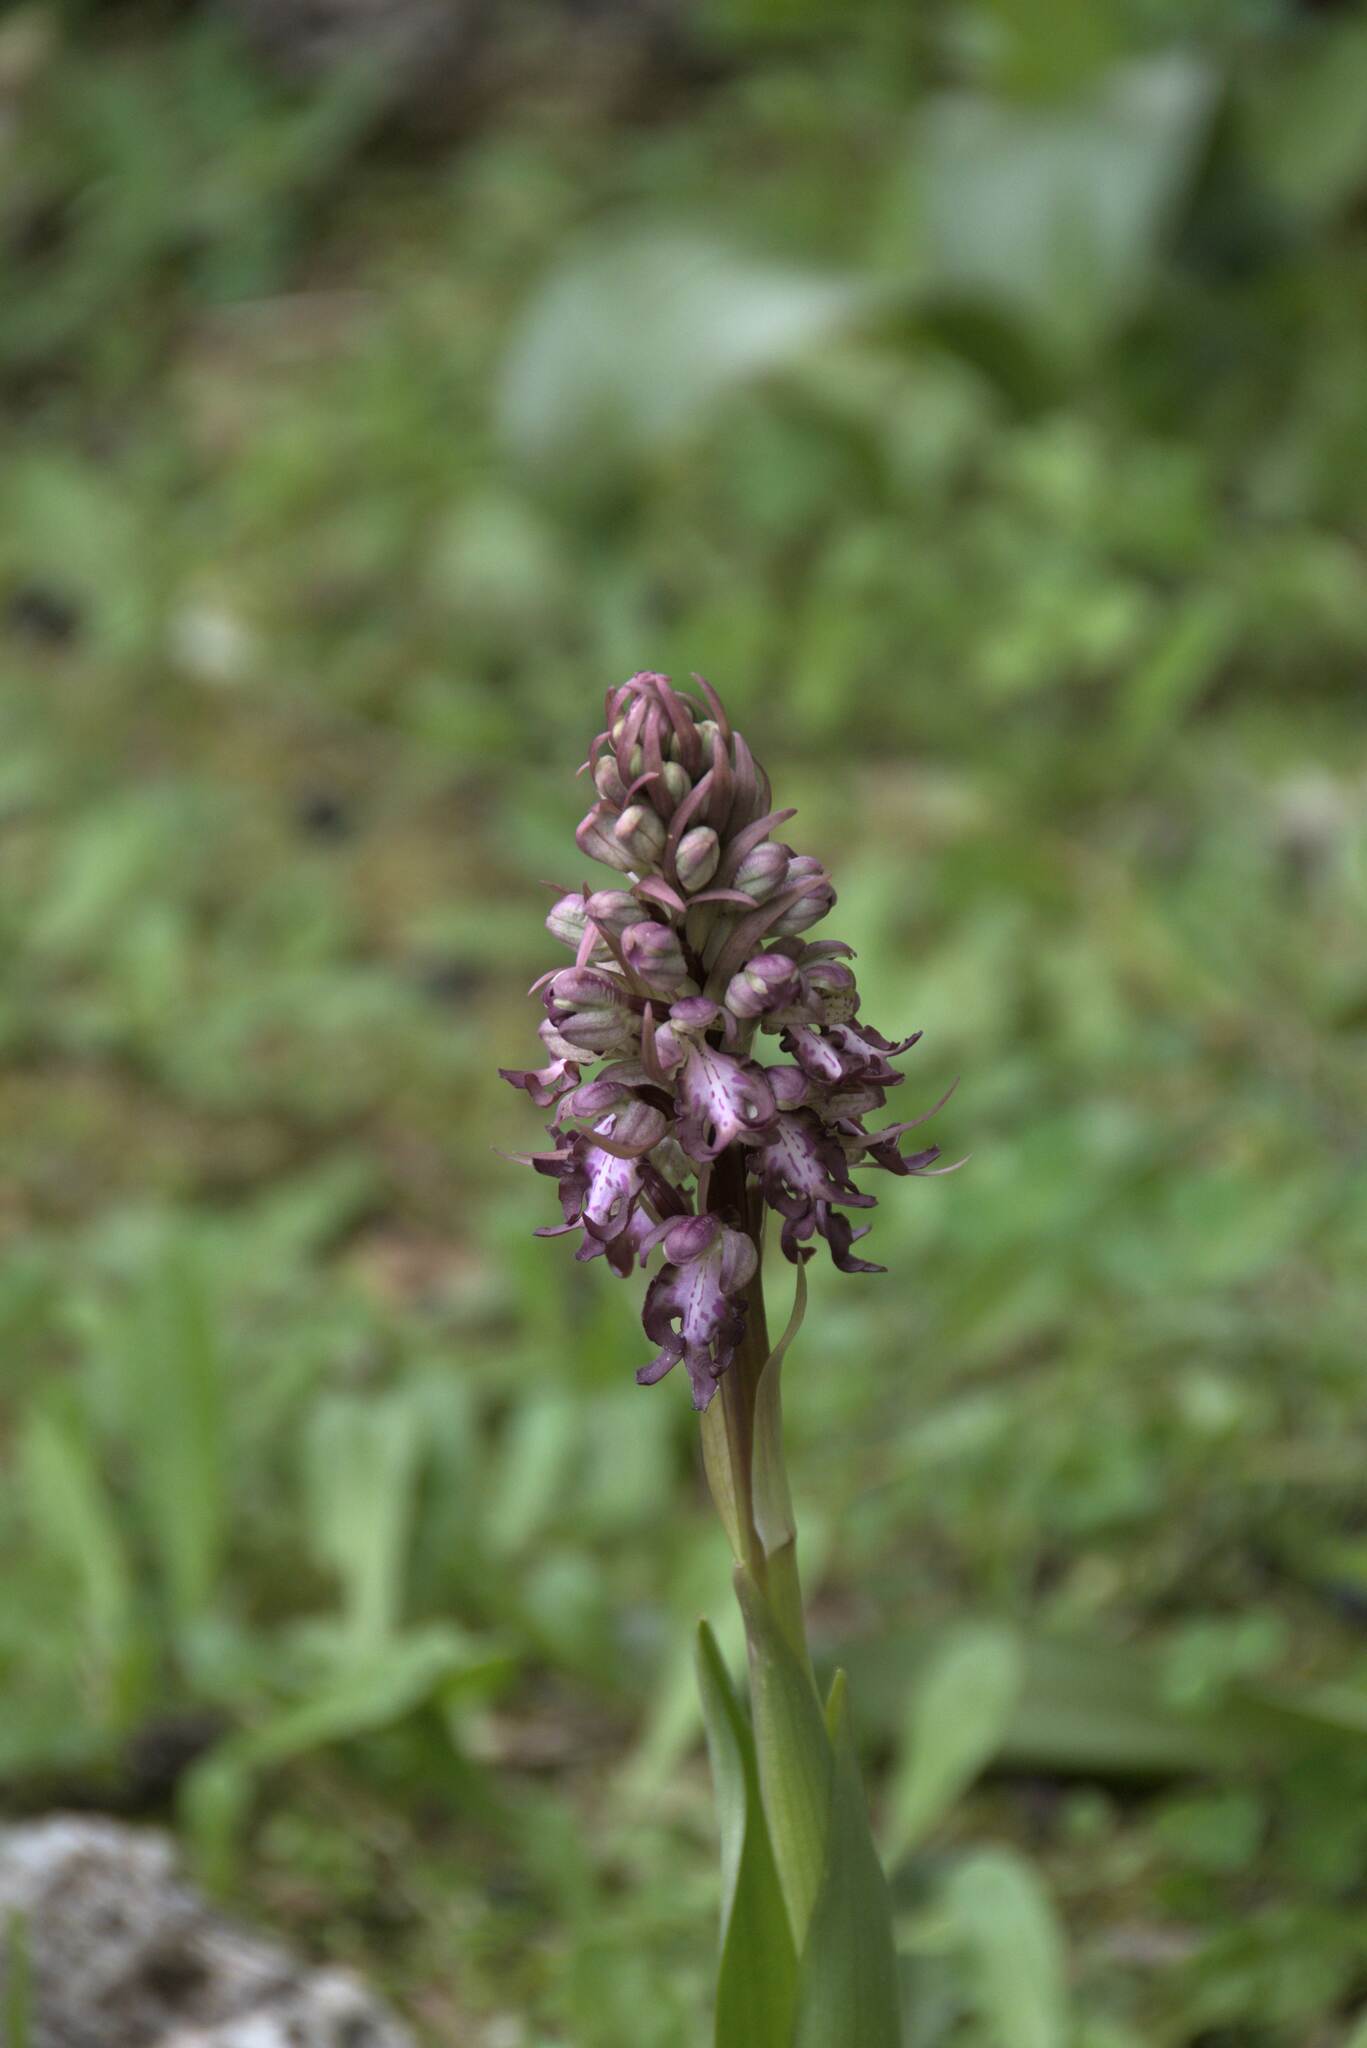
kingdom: Plantae
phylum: Tracheophyta
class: Liliopsida
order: Asparagales
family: Orchidaceae
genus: Himantoglossum
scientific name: Himantoglossum robertianum
